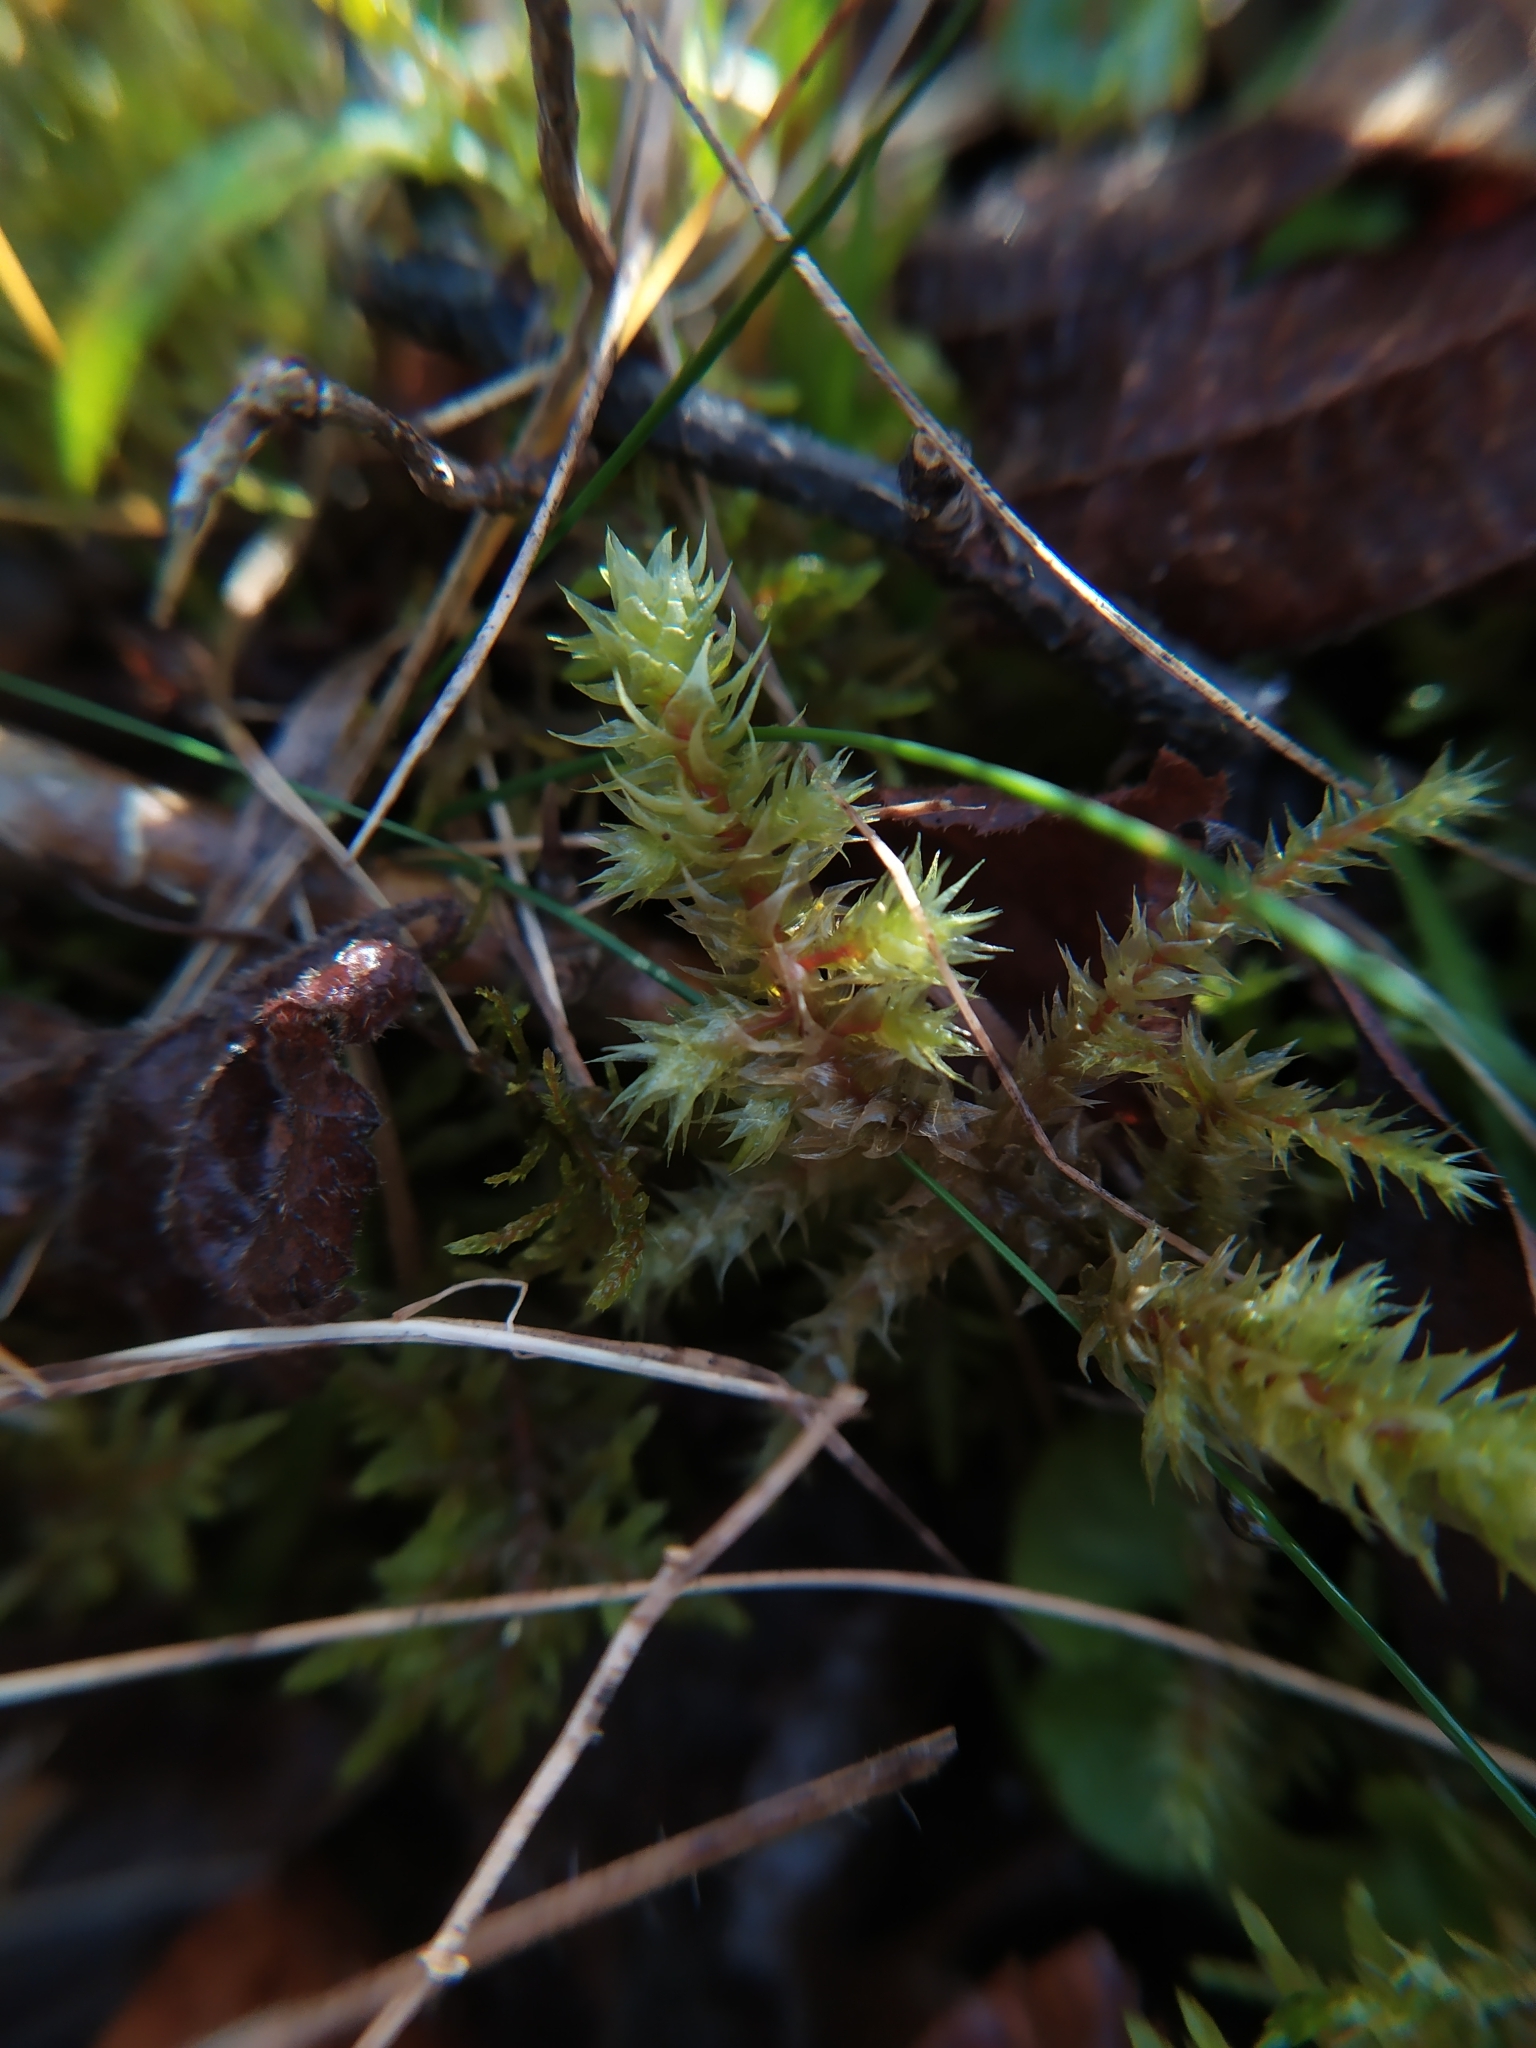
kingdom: Plantae
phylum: Bryophyta
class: Bryopsida
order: Hypnales
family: Hylocomiaceae
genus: Hylocomiadelphus
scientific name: Hylocomiadelphus triquetrus
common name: Rough goose neck moss
